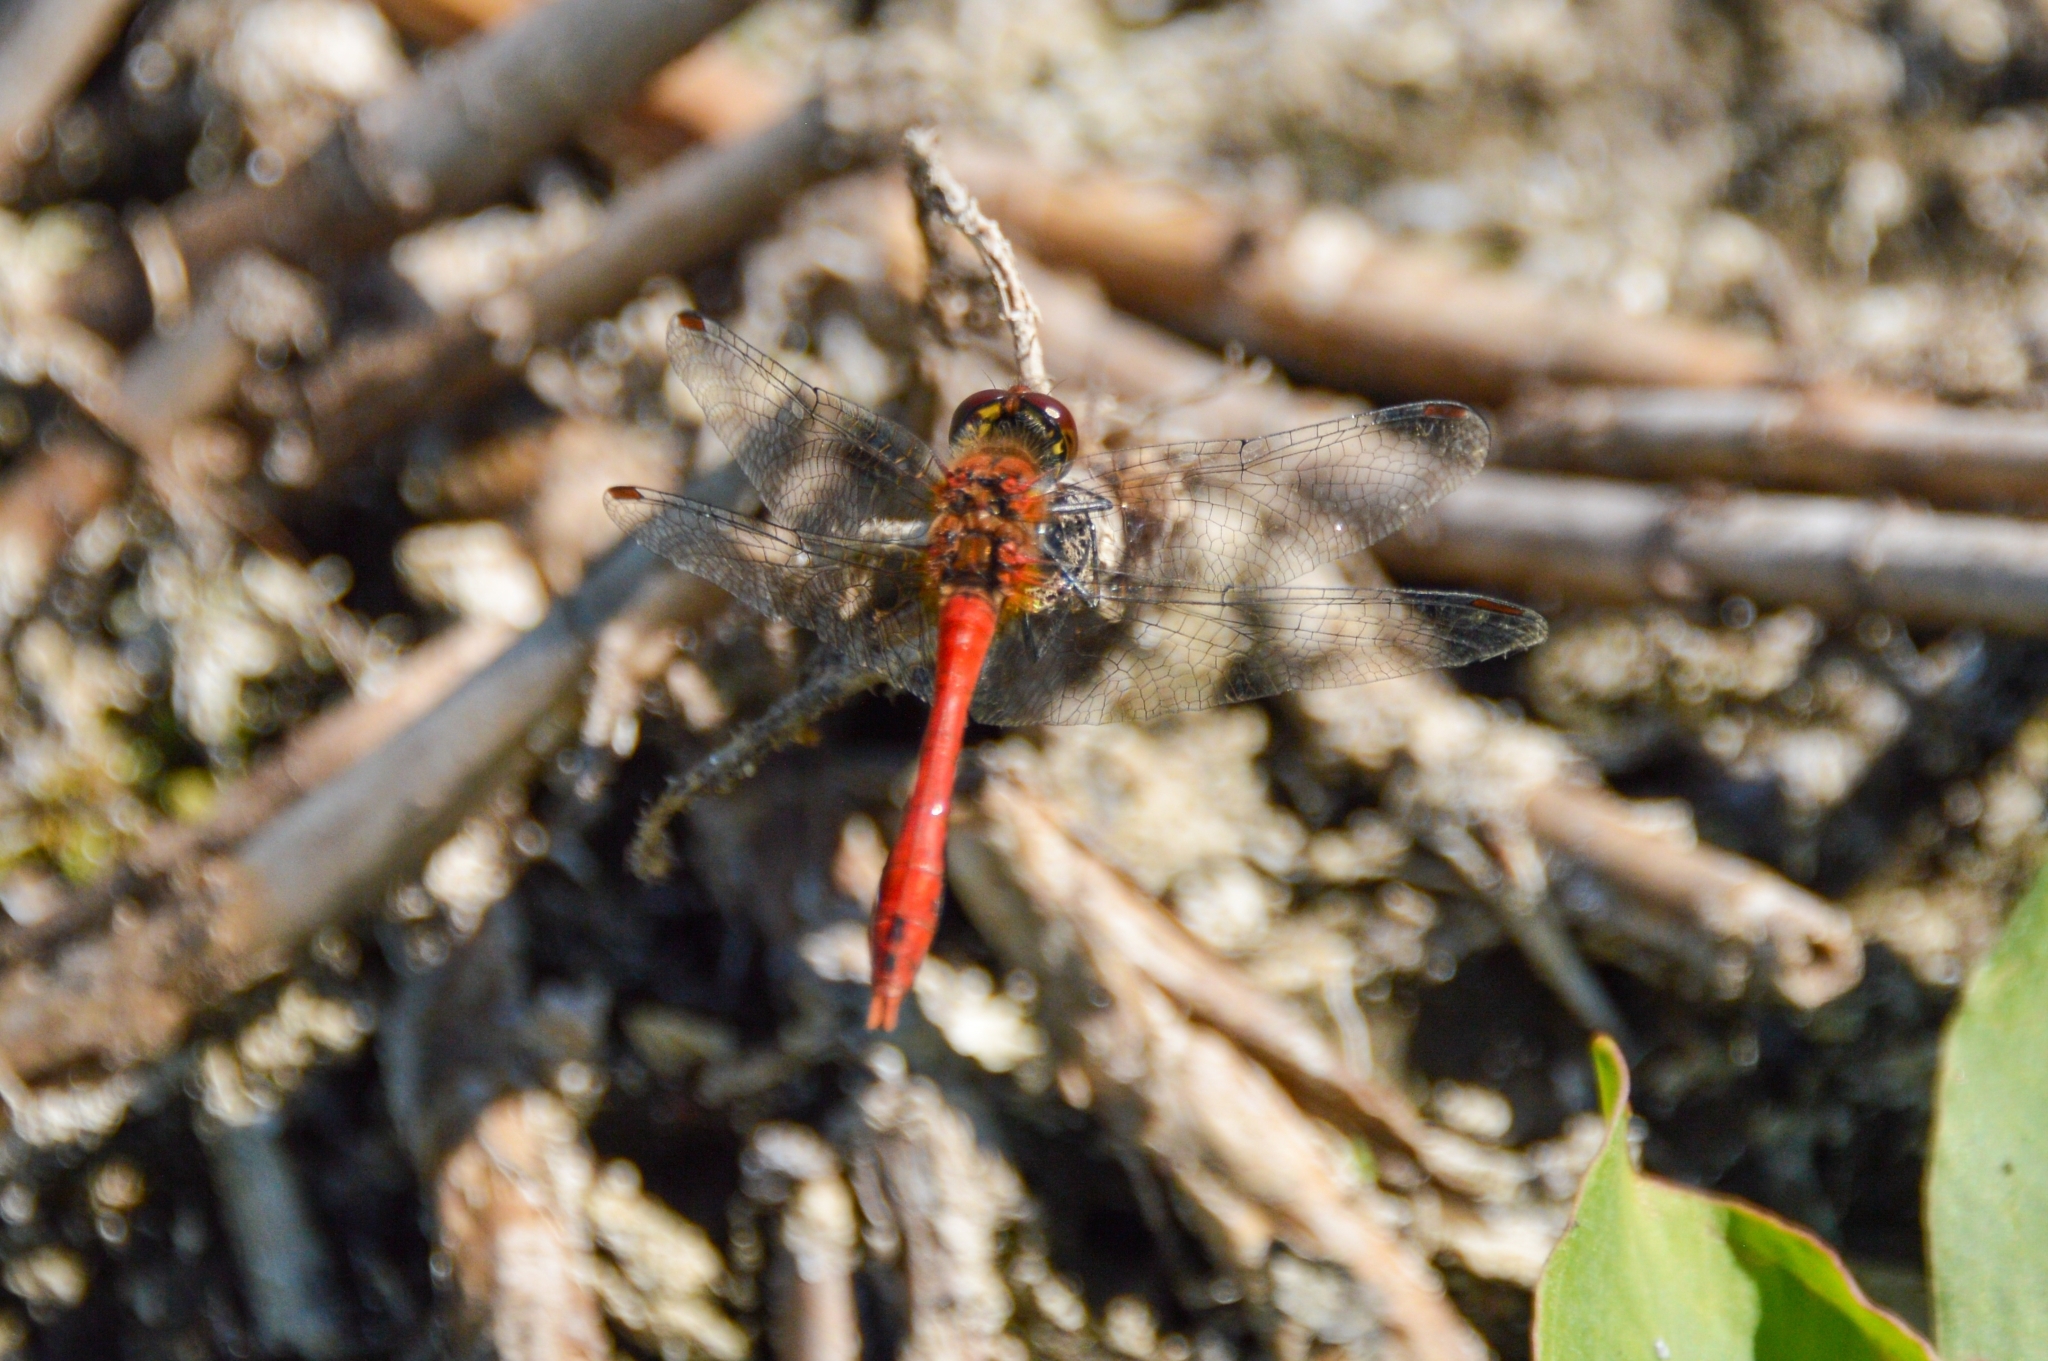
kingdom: Animalia
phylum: Arthropoda
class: Insecta
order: Odonata
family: Libellulidae
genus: Sympetrum
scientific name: Sympetrum sanguineum
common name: Ruddy darter
